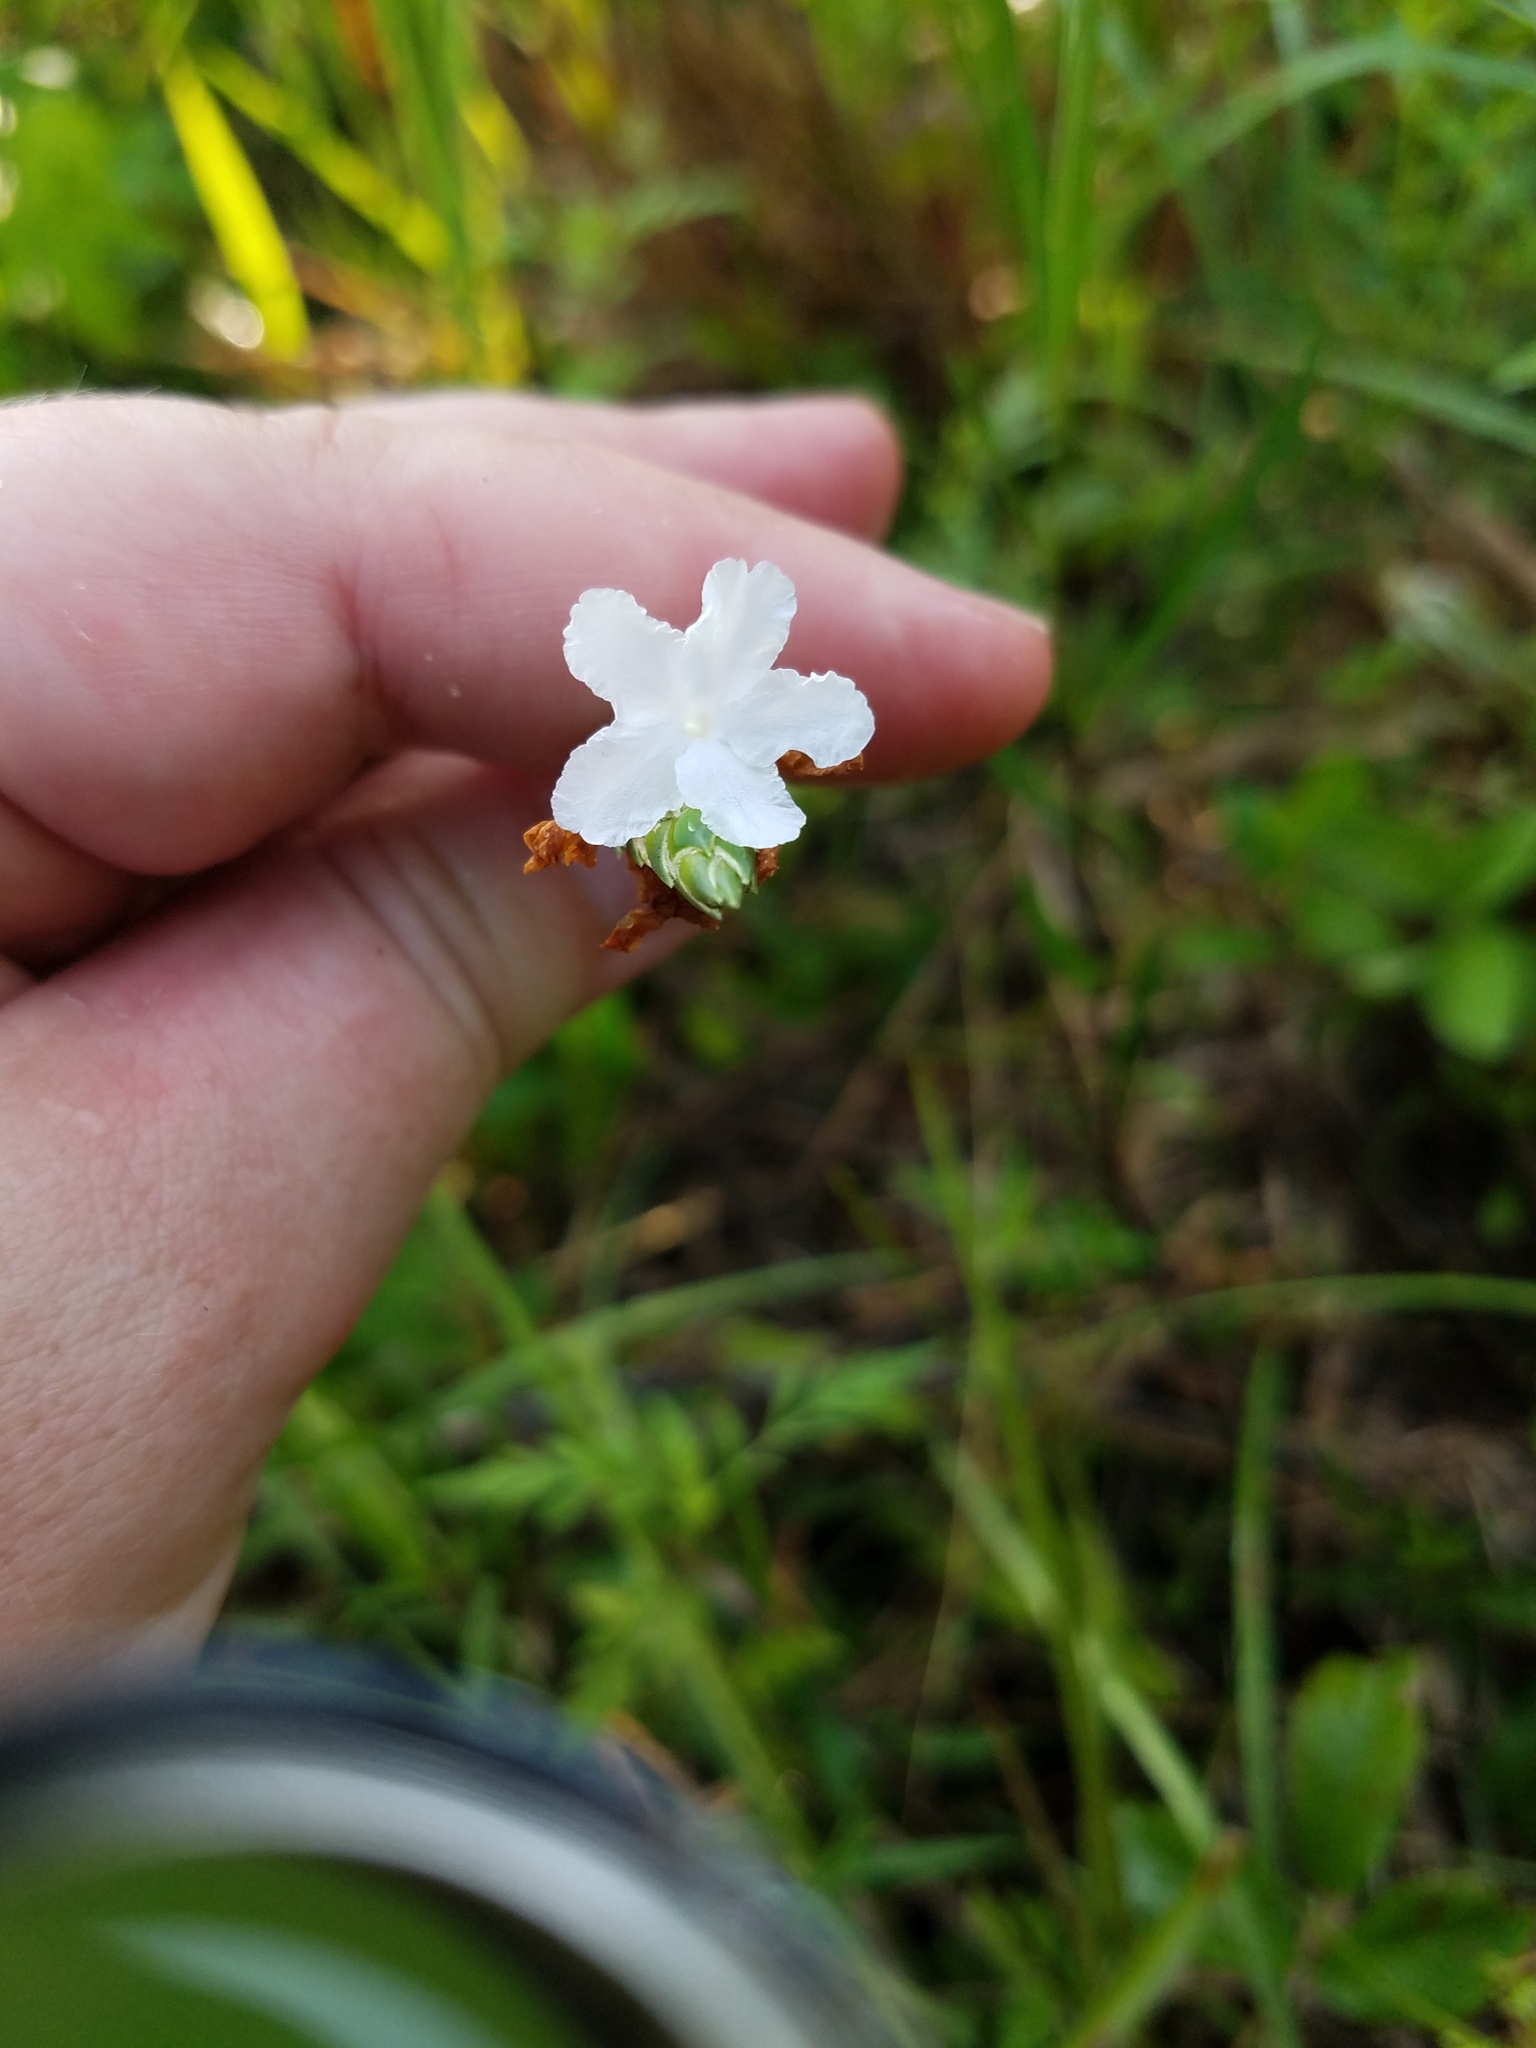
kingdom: Plantae
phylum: Tracheophyta
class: Magnoliopsida
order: Lamiales
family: Acanthaceae
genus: Elytraria
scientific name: Elytraria caroliniensis
